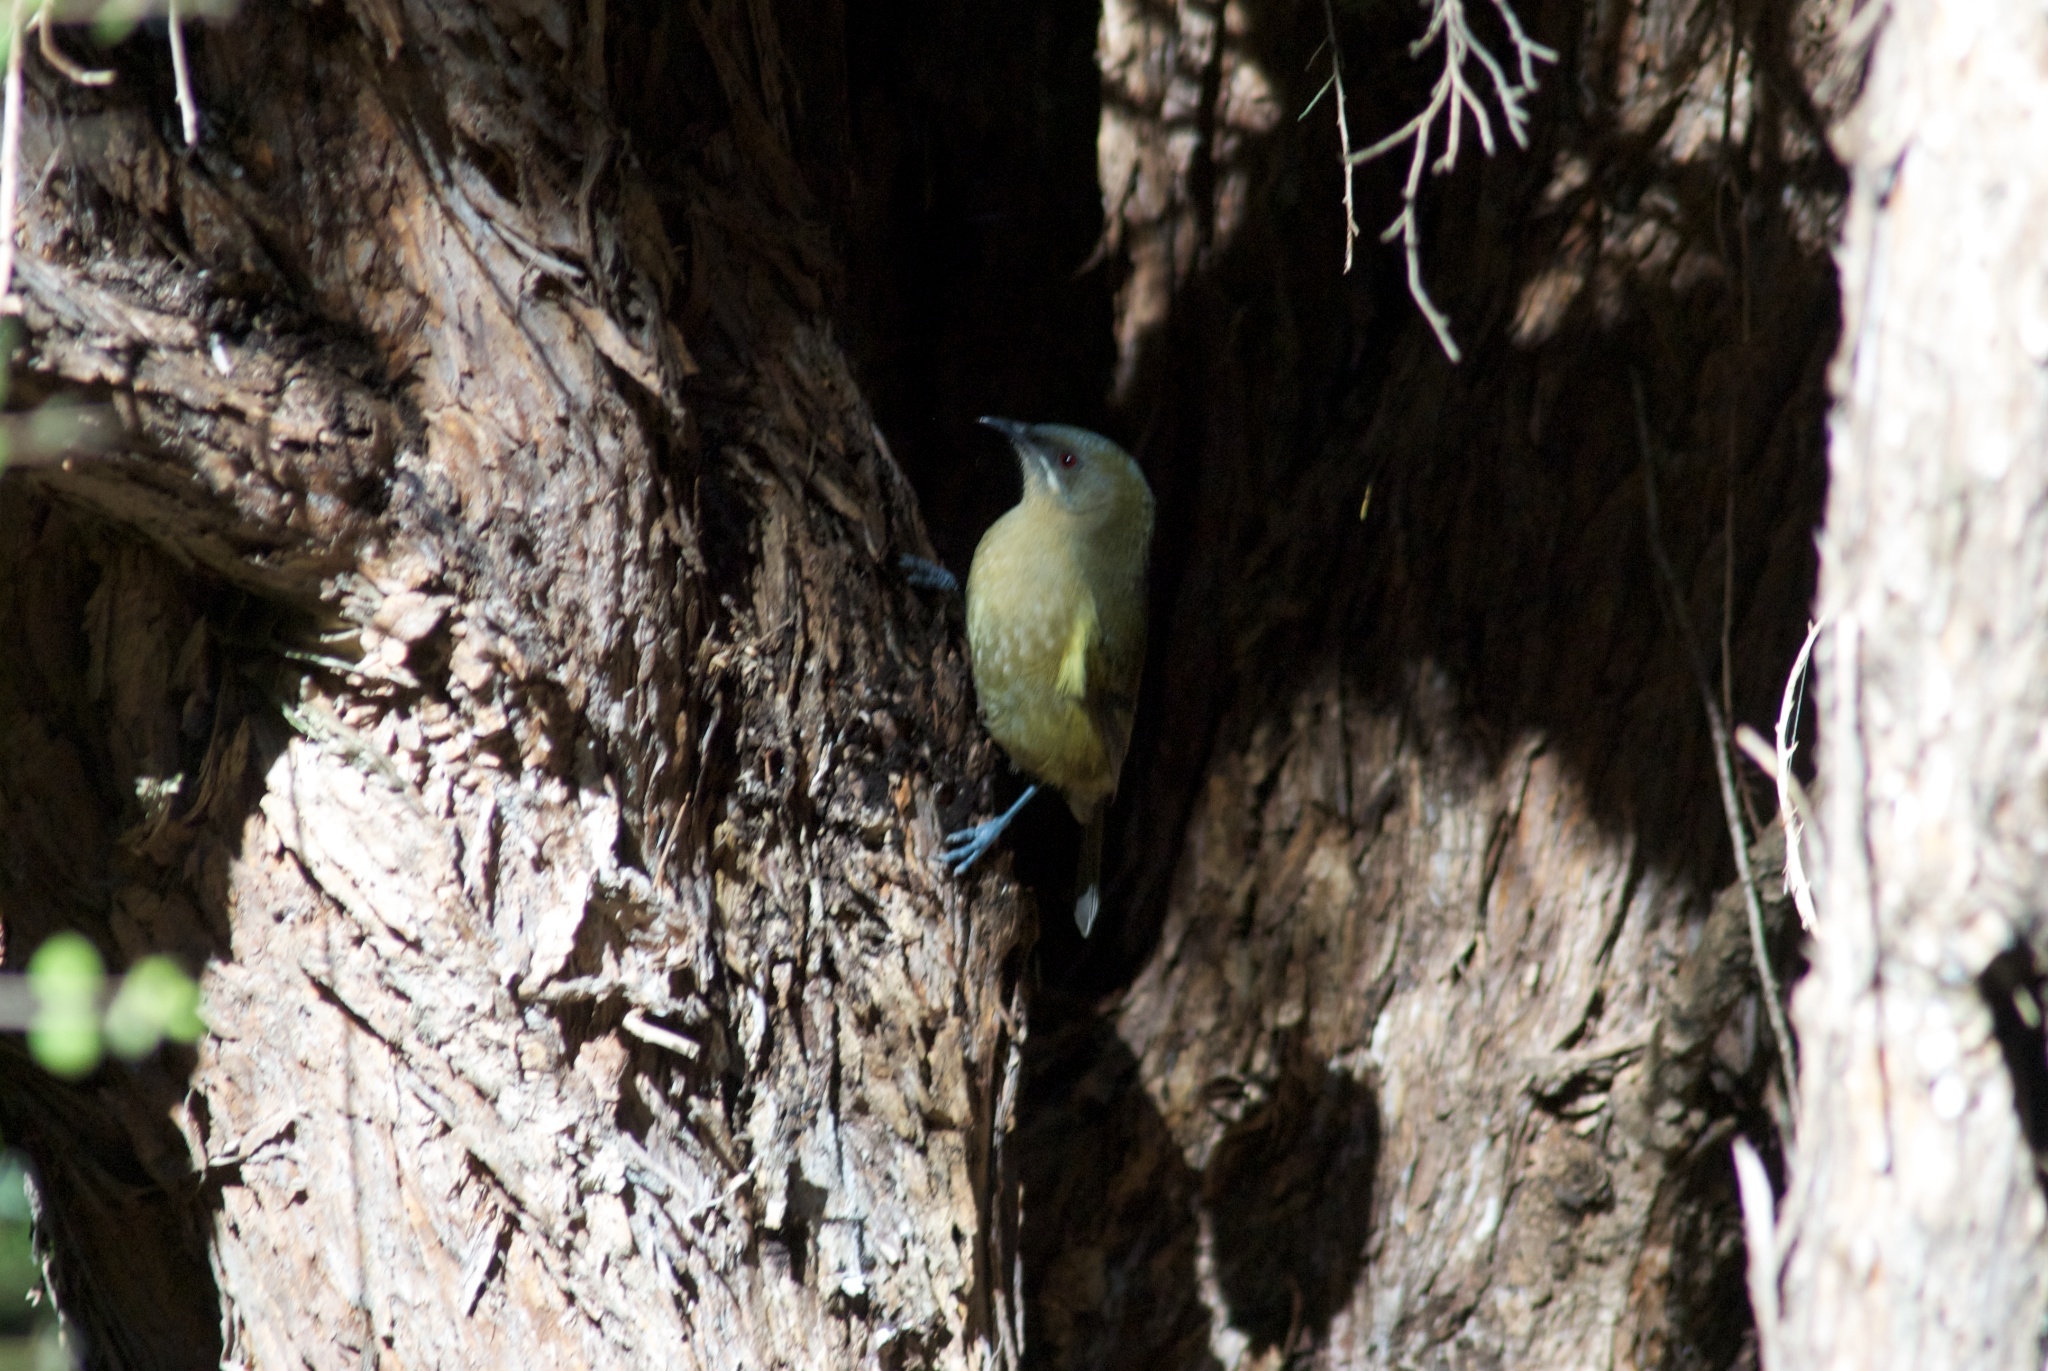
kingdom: Animalia
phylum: Chordata
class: Aves
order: Passeriformes
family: Meliphagidae
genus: Anthornis
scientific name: Anthornis melanura
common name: New zealand bellbird
